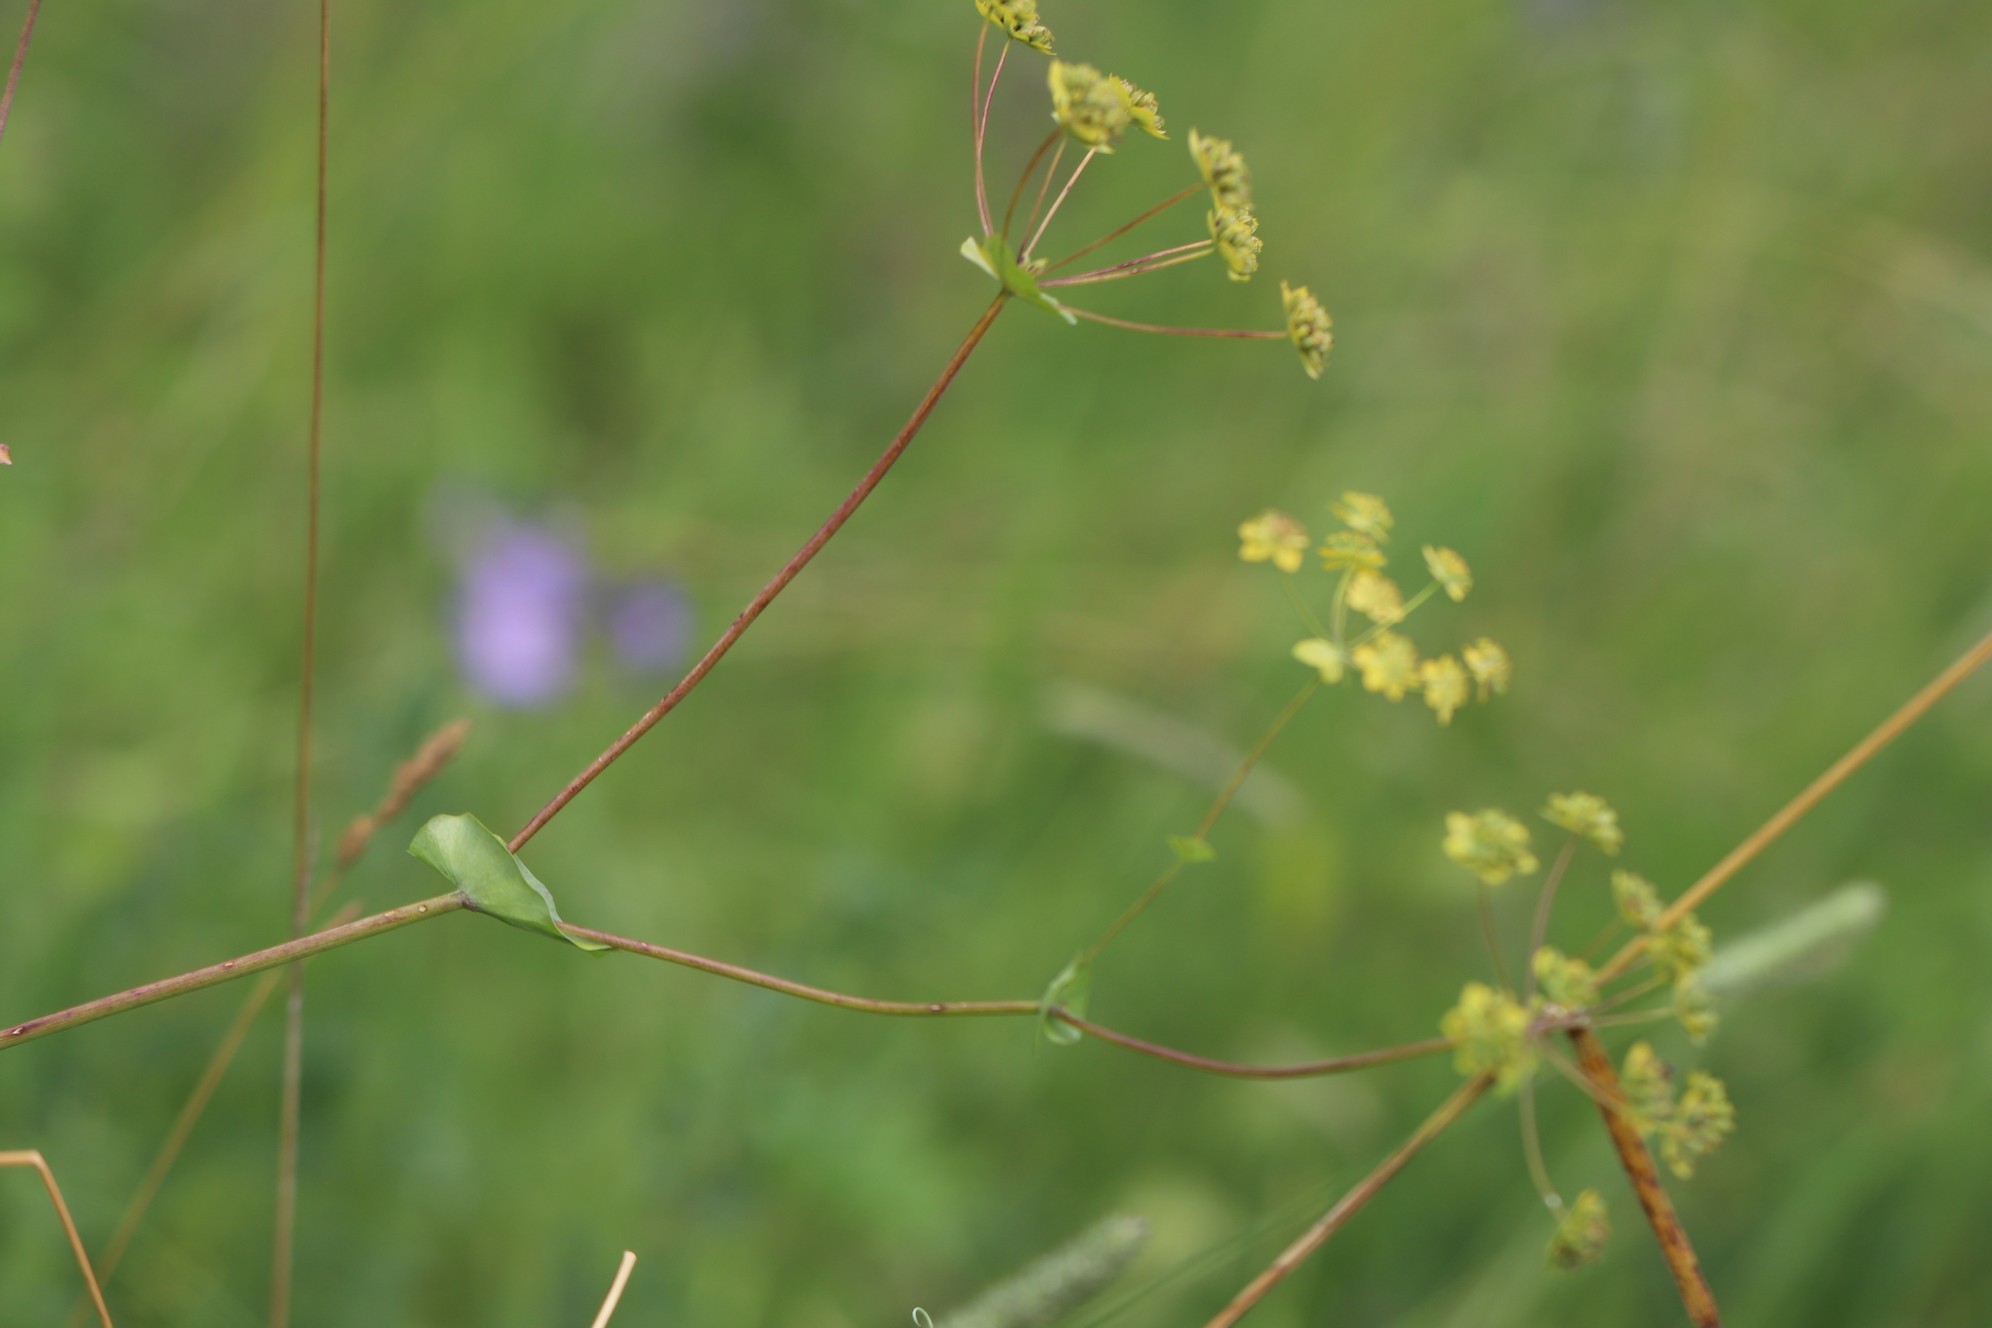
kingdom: Plantae
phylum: Tracheophyta
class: Magnoliopsida
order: Apiales
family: Apiaceae
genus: Bupleurum
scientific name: Bupleurum aureum
